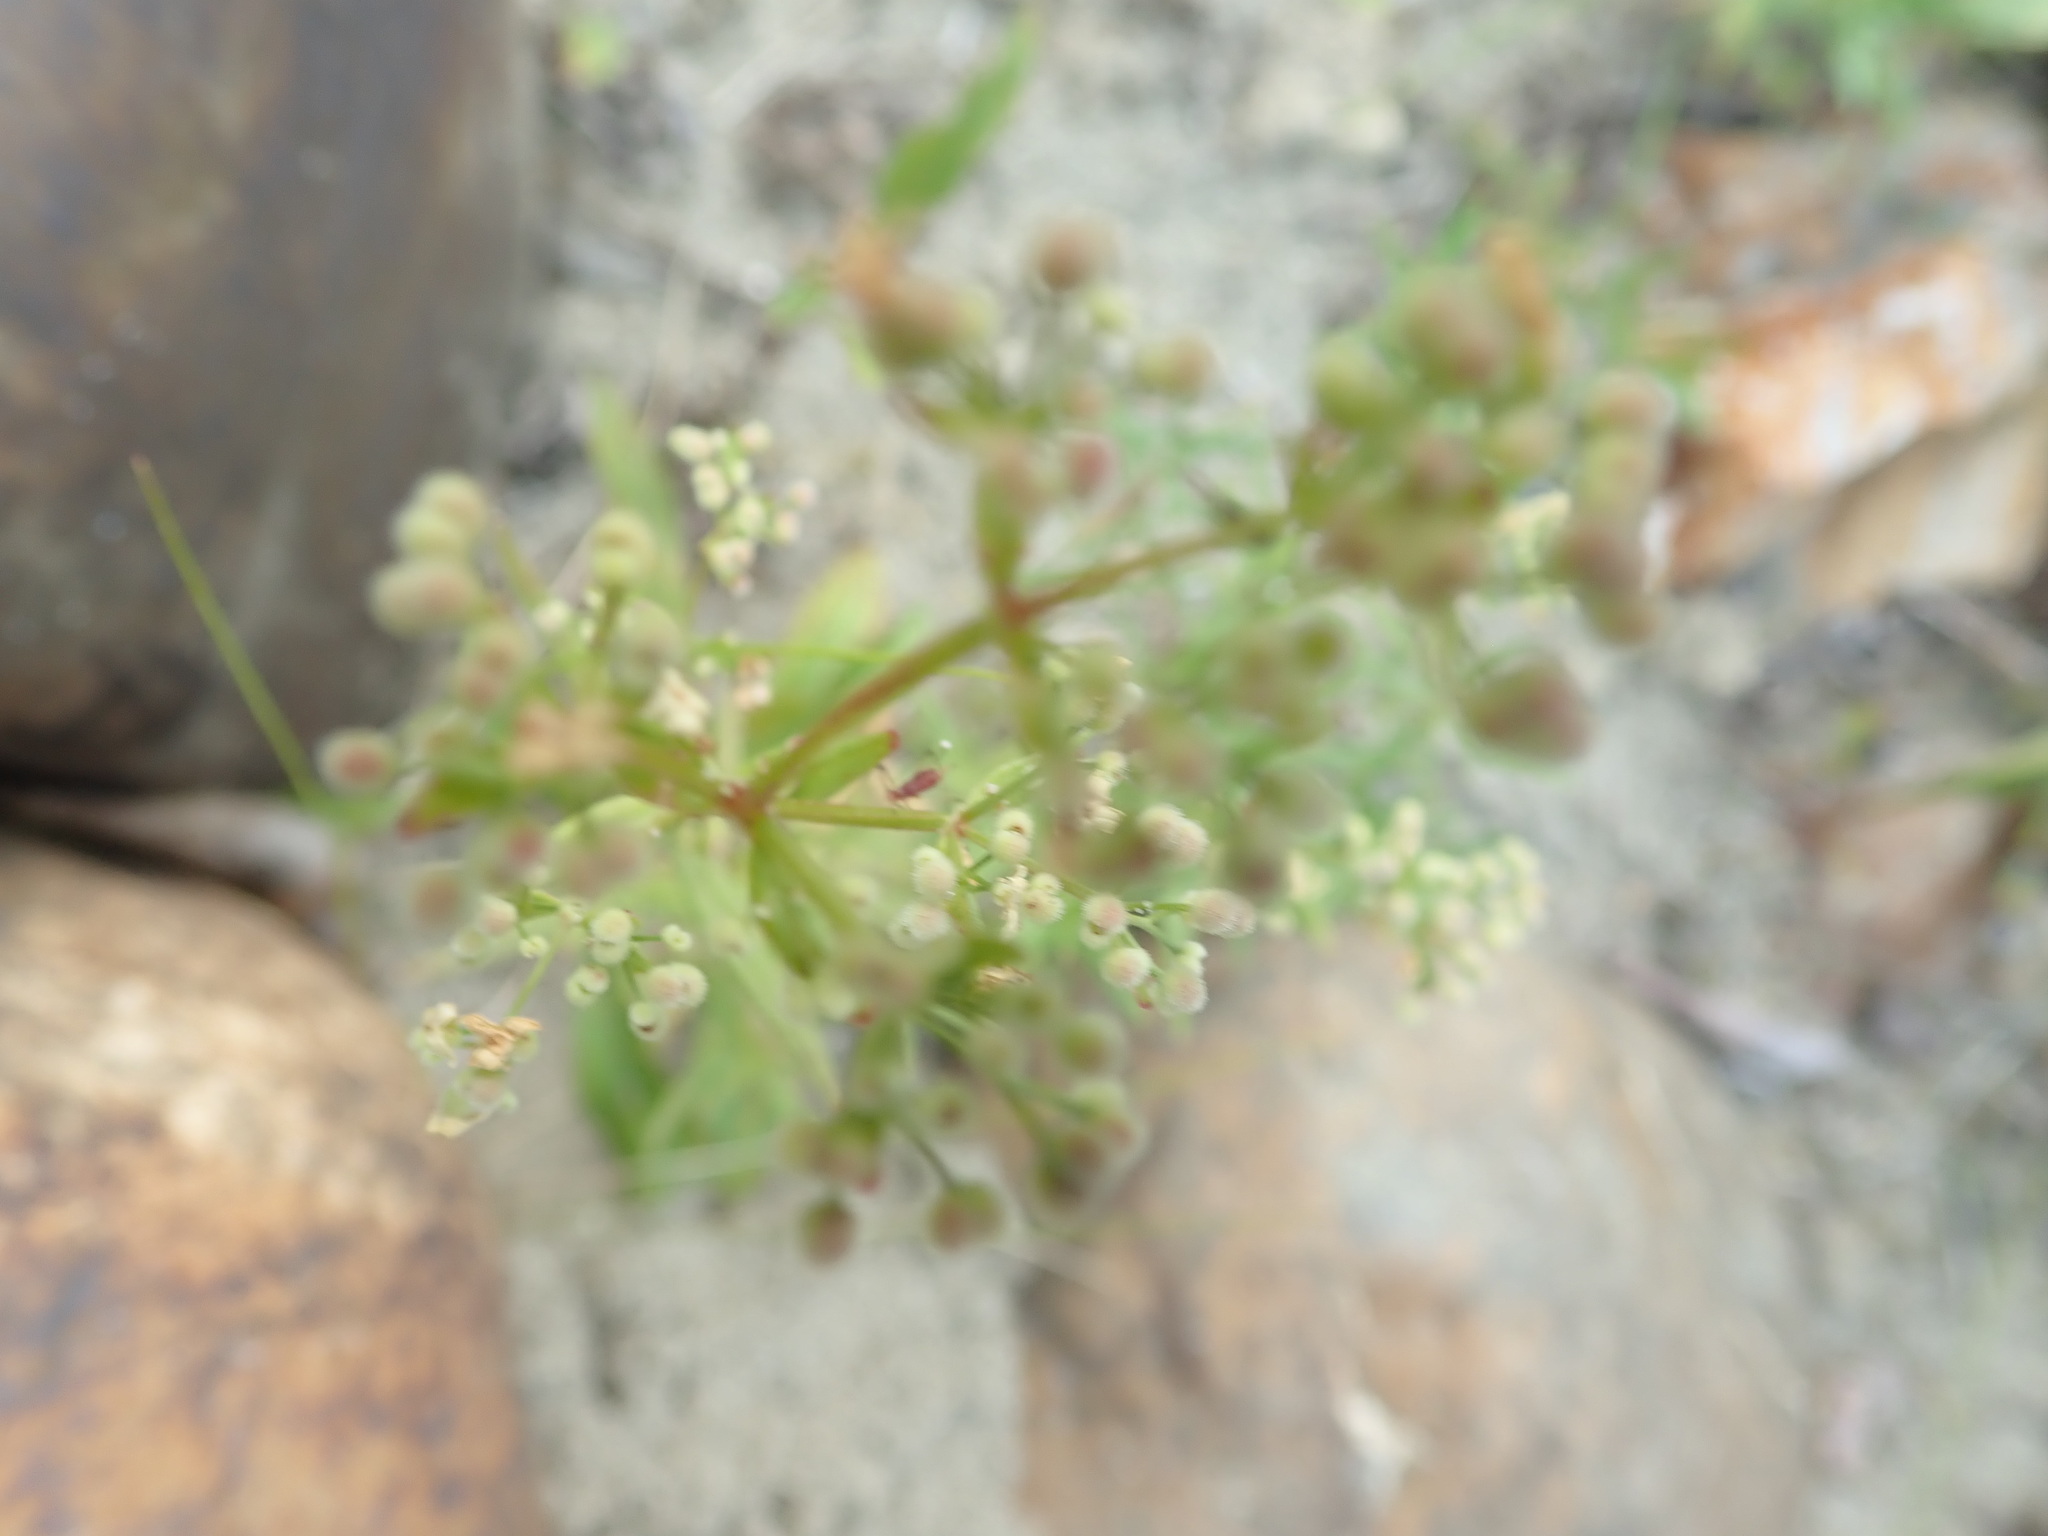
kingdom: Plantae
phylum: Tracheophyta
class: Magnoliopsida
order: Gentianales
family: Rubiaceae
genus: Galium
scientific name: Galium boreale
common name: Northern bedstraw
